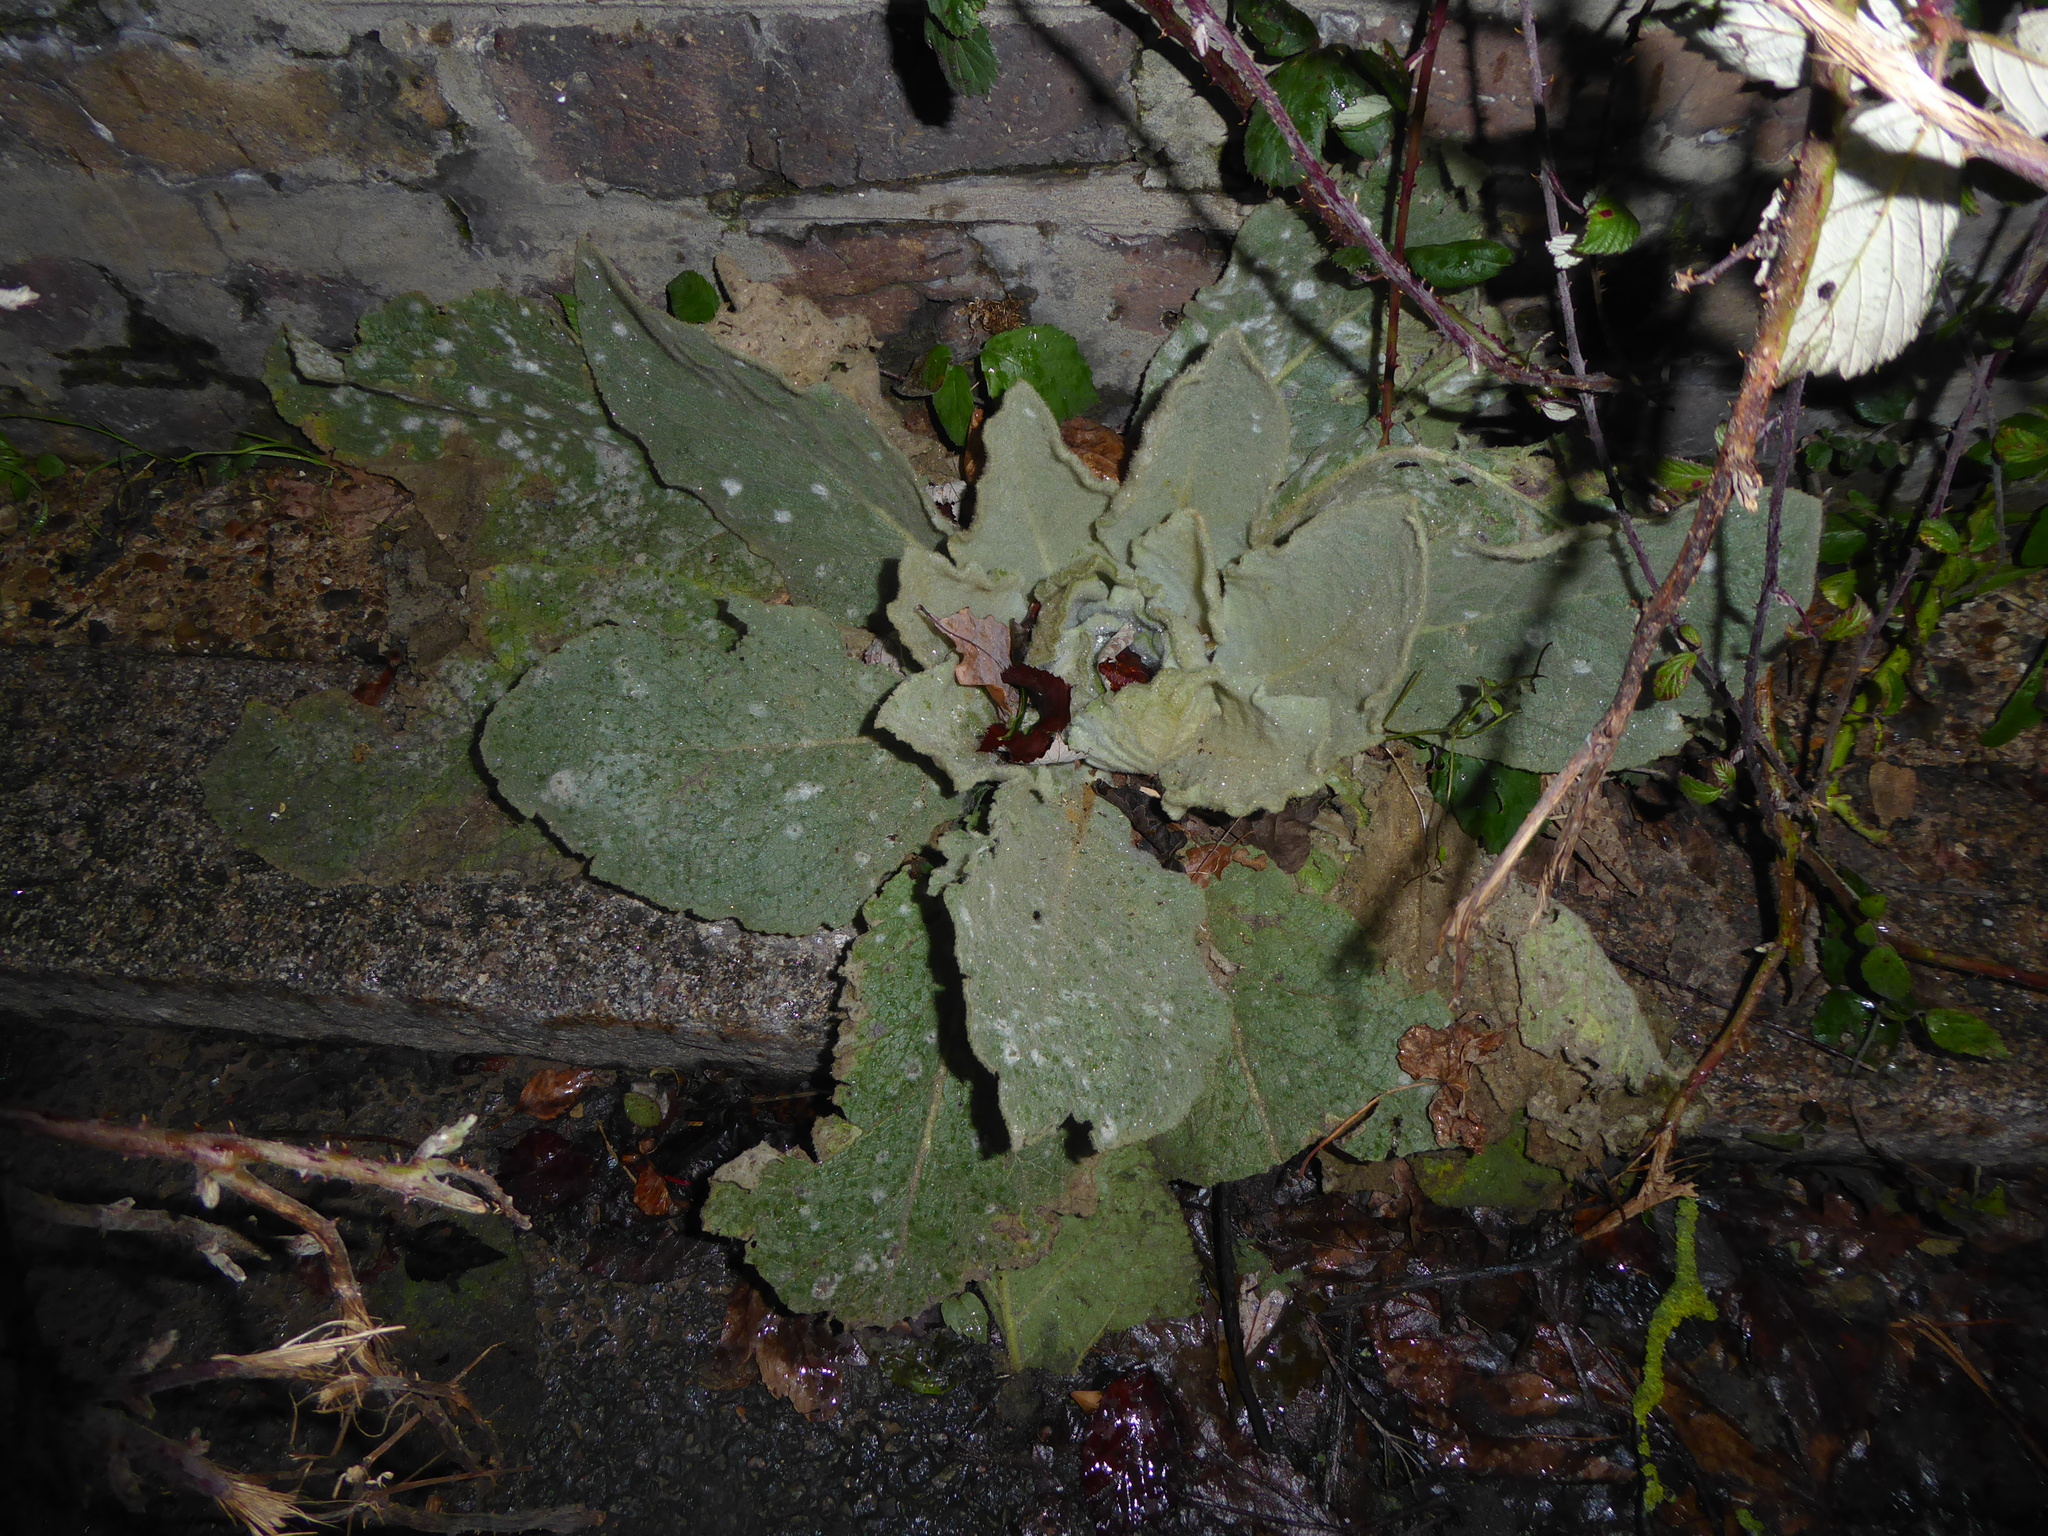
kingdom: Plantae
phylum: Tracheophyta
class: Magnoliopsida
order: Lamiales
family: Scrophulariaceae
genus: Verbascum
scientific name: Verbascum thapsus
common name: Common mullein
